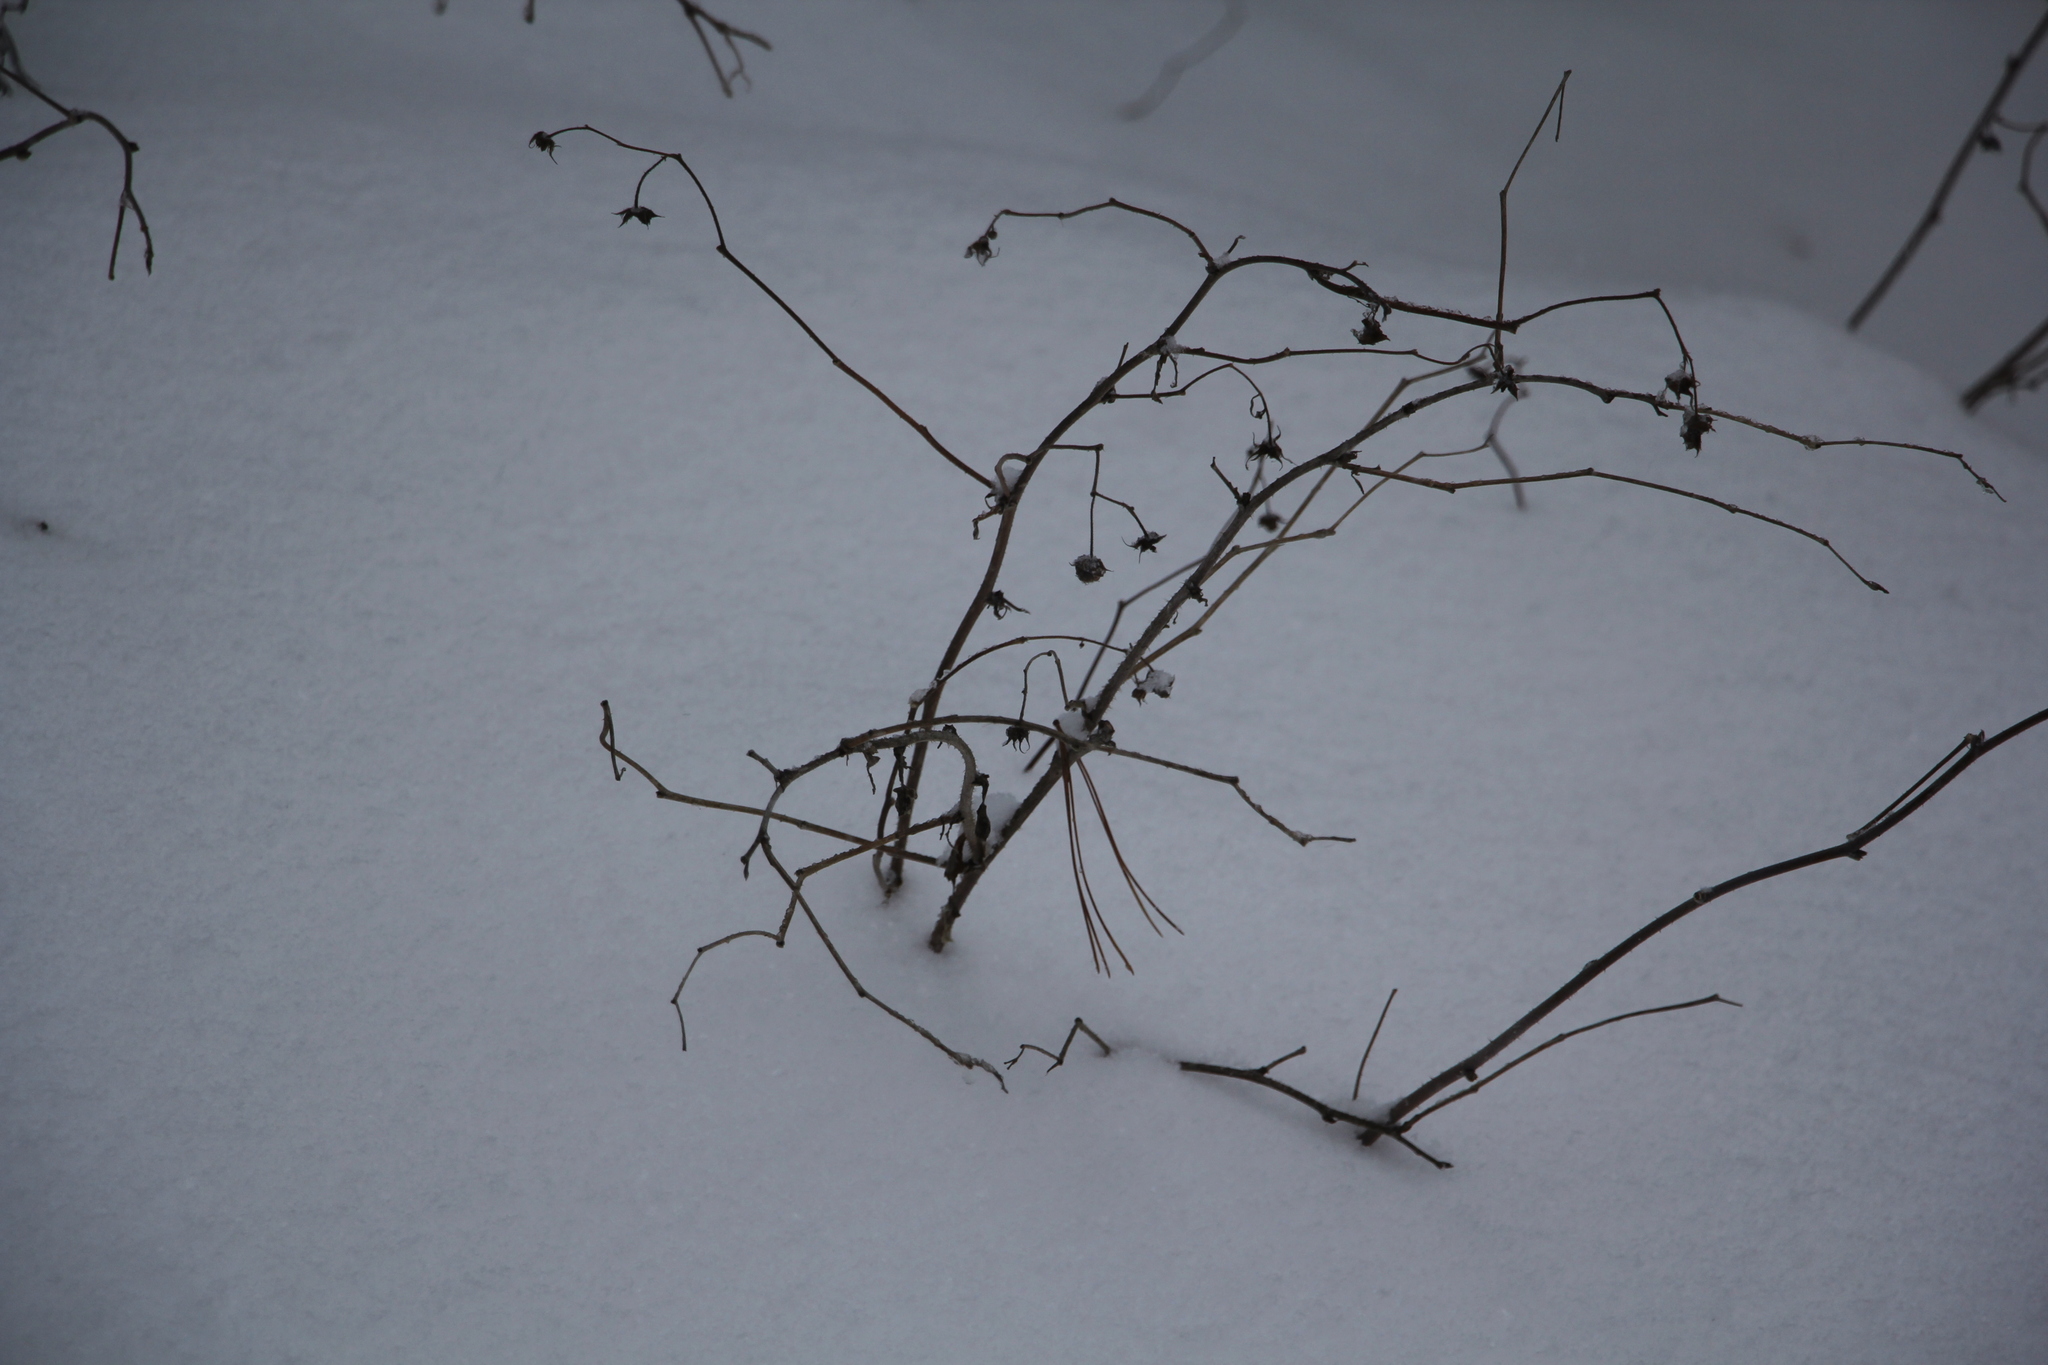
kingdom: Plantae
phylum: Tracheophyta
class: Magnoliopsida
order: Rosales
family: Rosaceae
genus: Rubus
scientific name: Rubus sachalinensis
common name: Red raspberry
